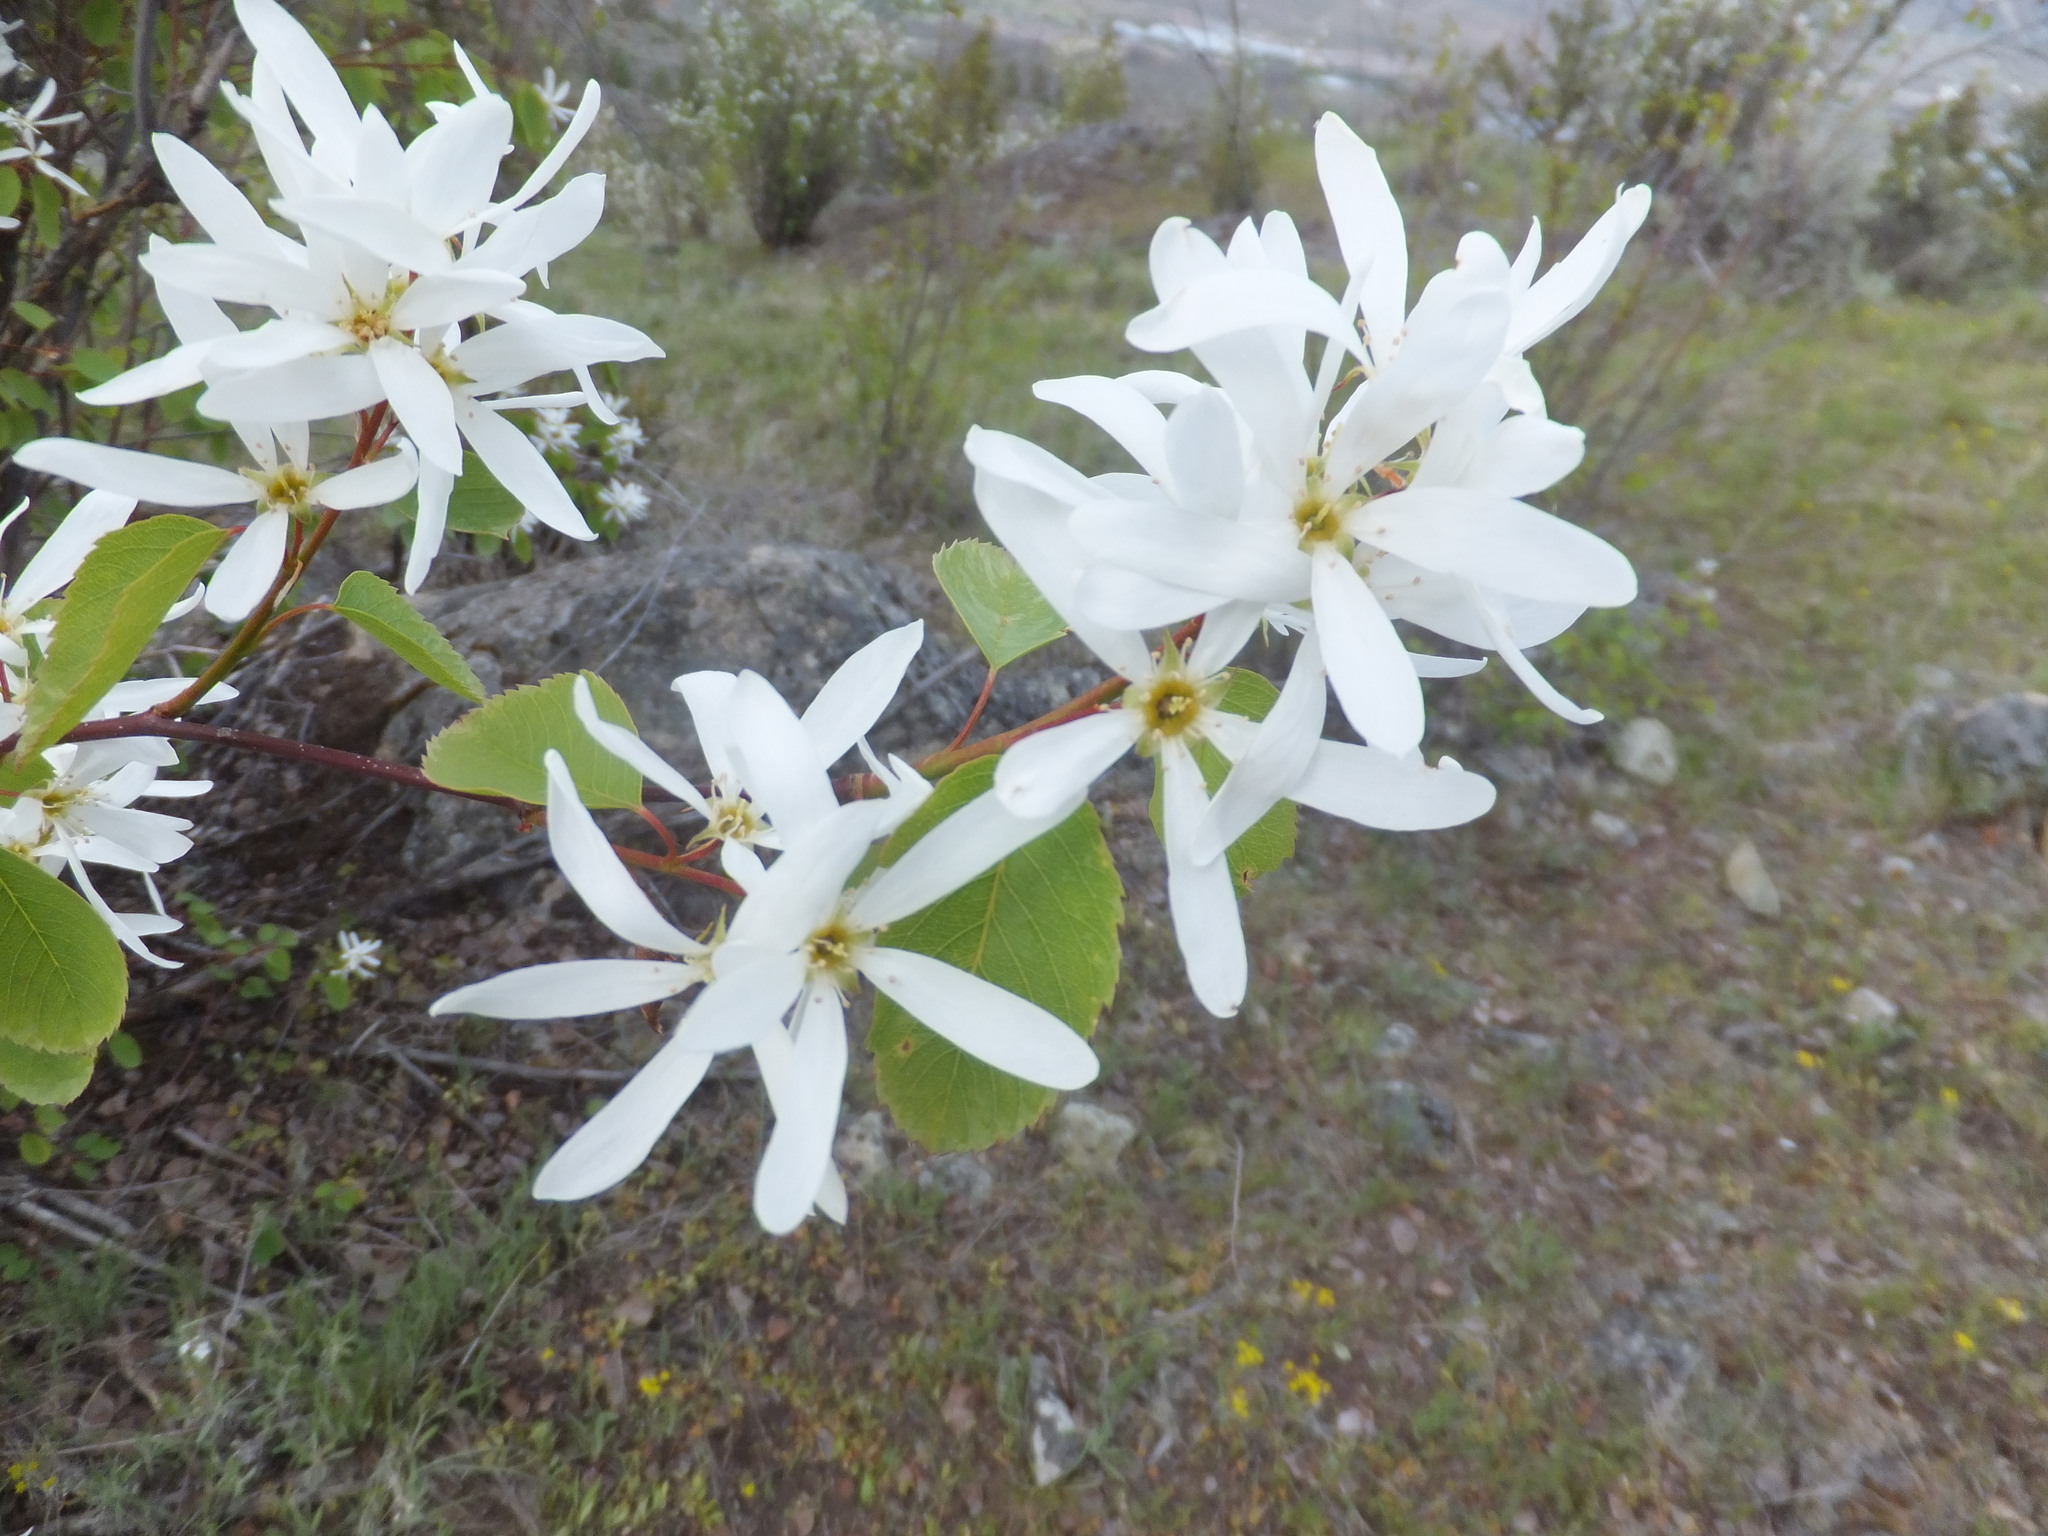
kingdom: Plantae
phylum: Tracheophyta
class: Magnoliopsida
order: Rosales
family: Rosaceae
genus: Amelanchier
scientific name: Amelanchier alnifolia
